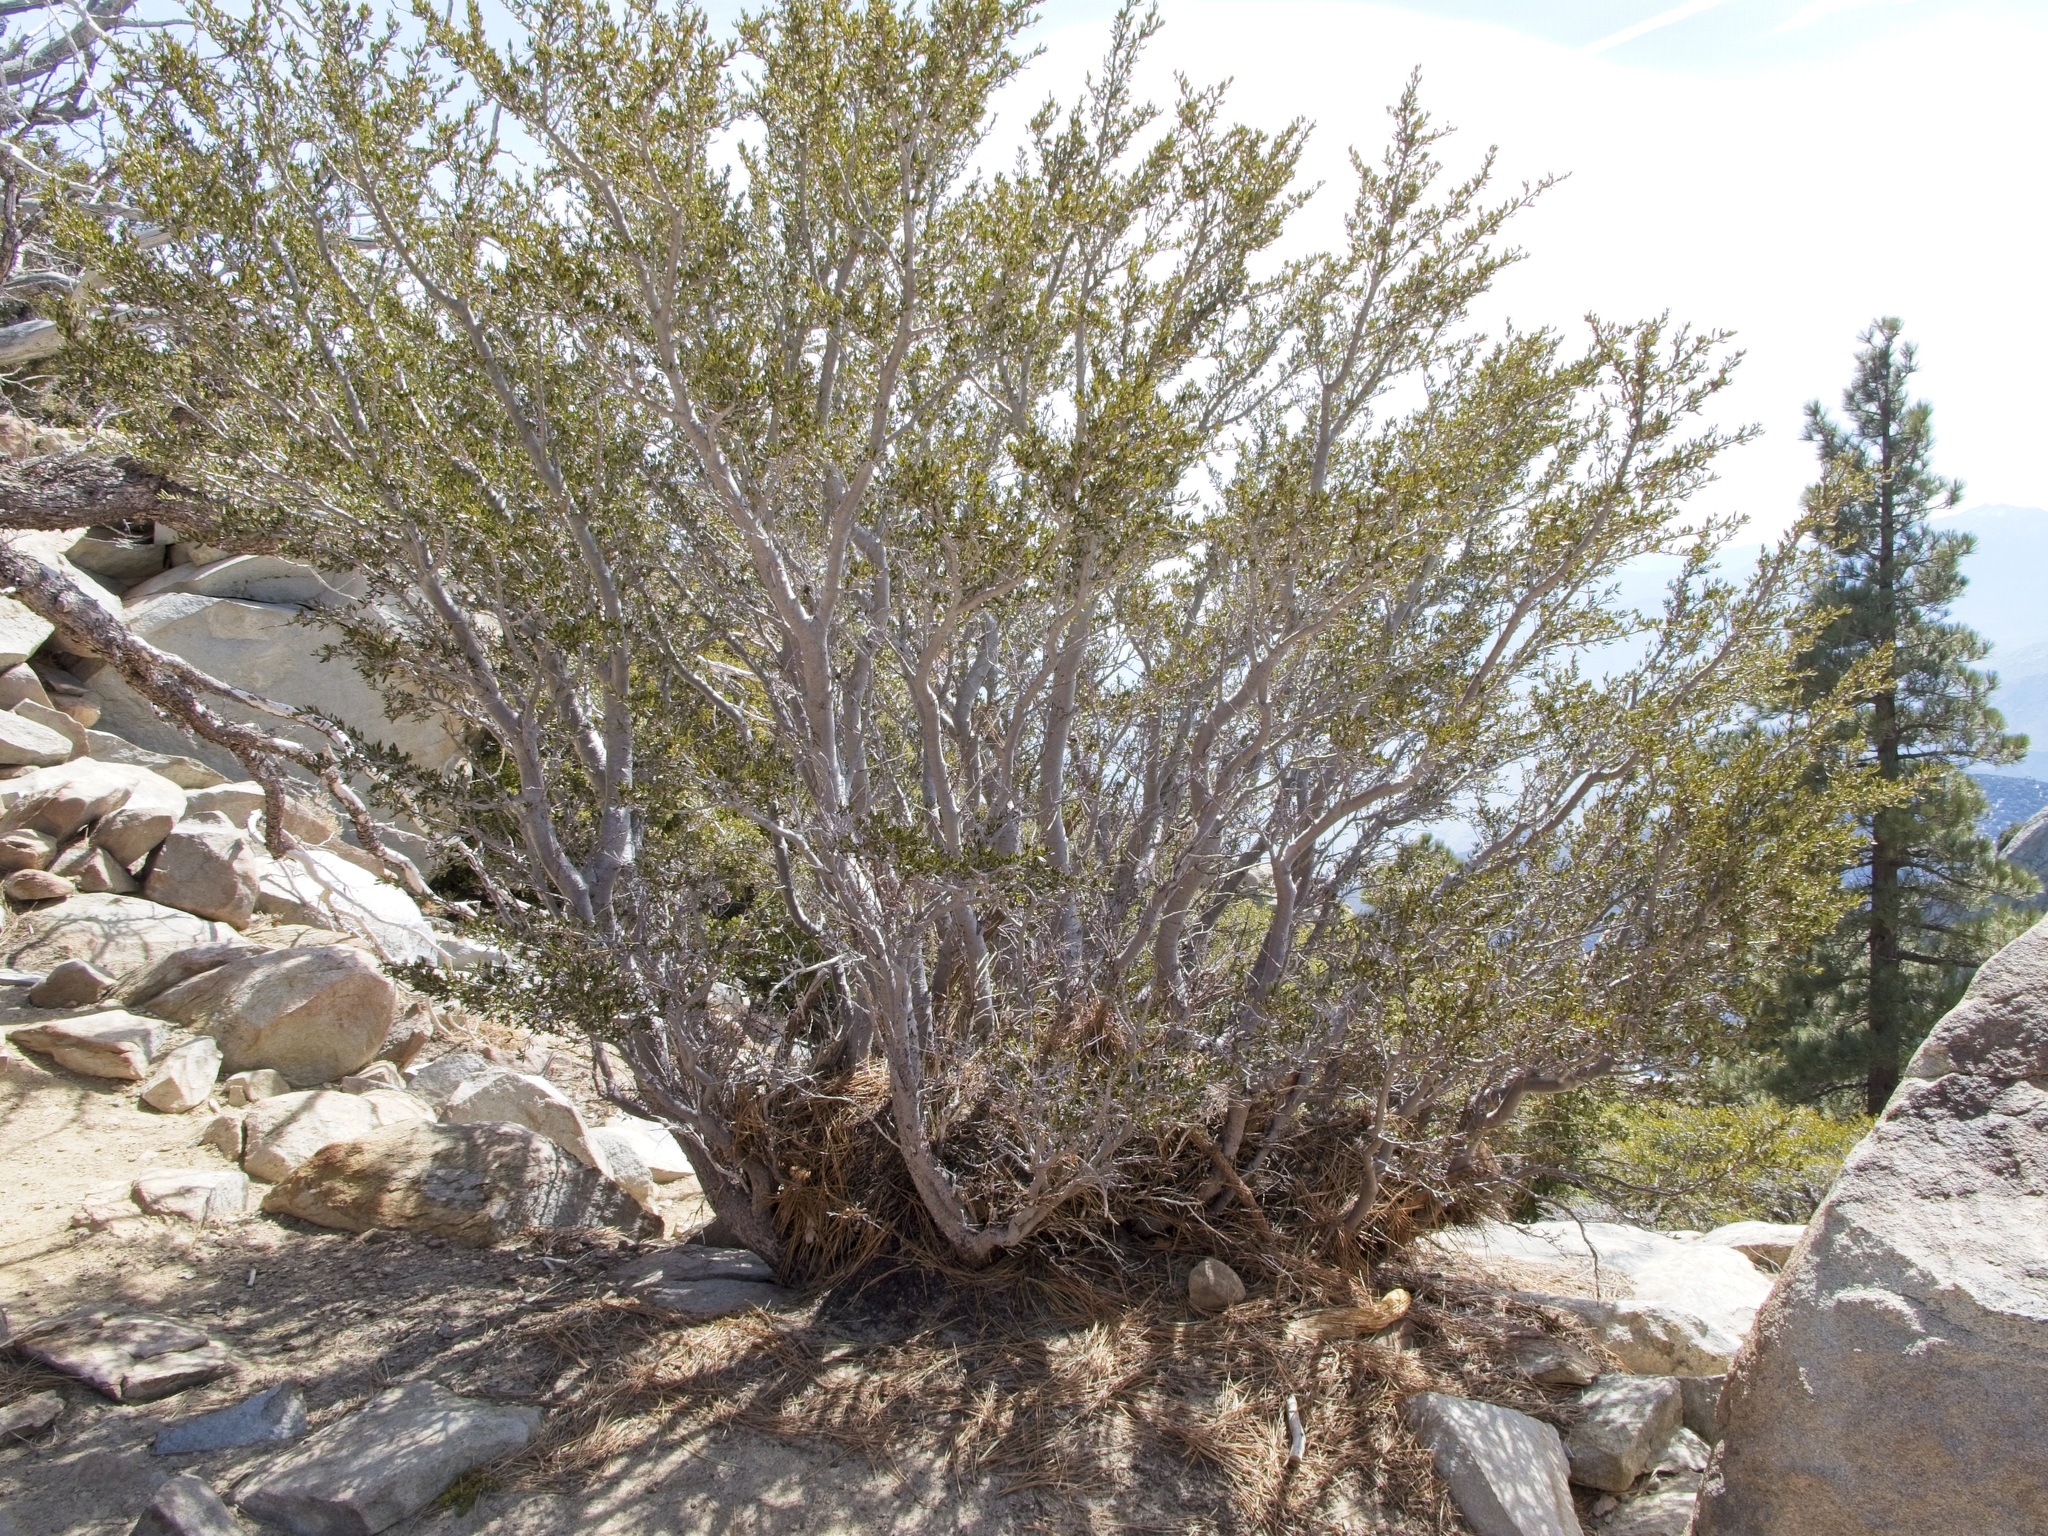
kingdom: Plantae
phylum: Tracheophyta
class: Magnoliopsida
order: Rosales
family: Rosaceae
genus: Cercocarpus
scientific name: Cercocarpus ledifolius
